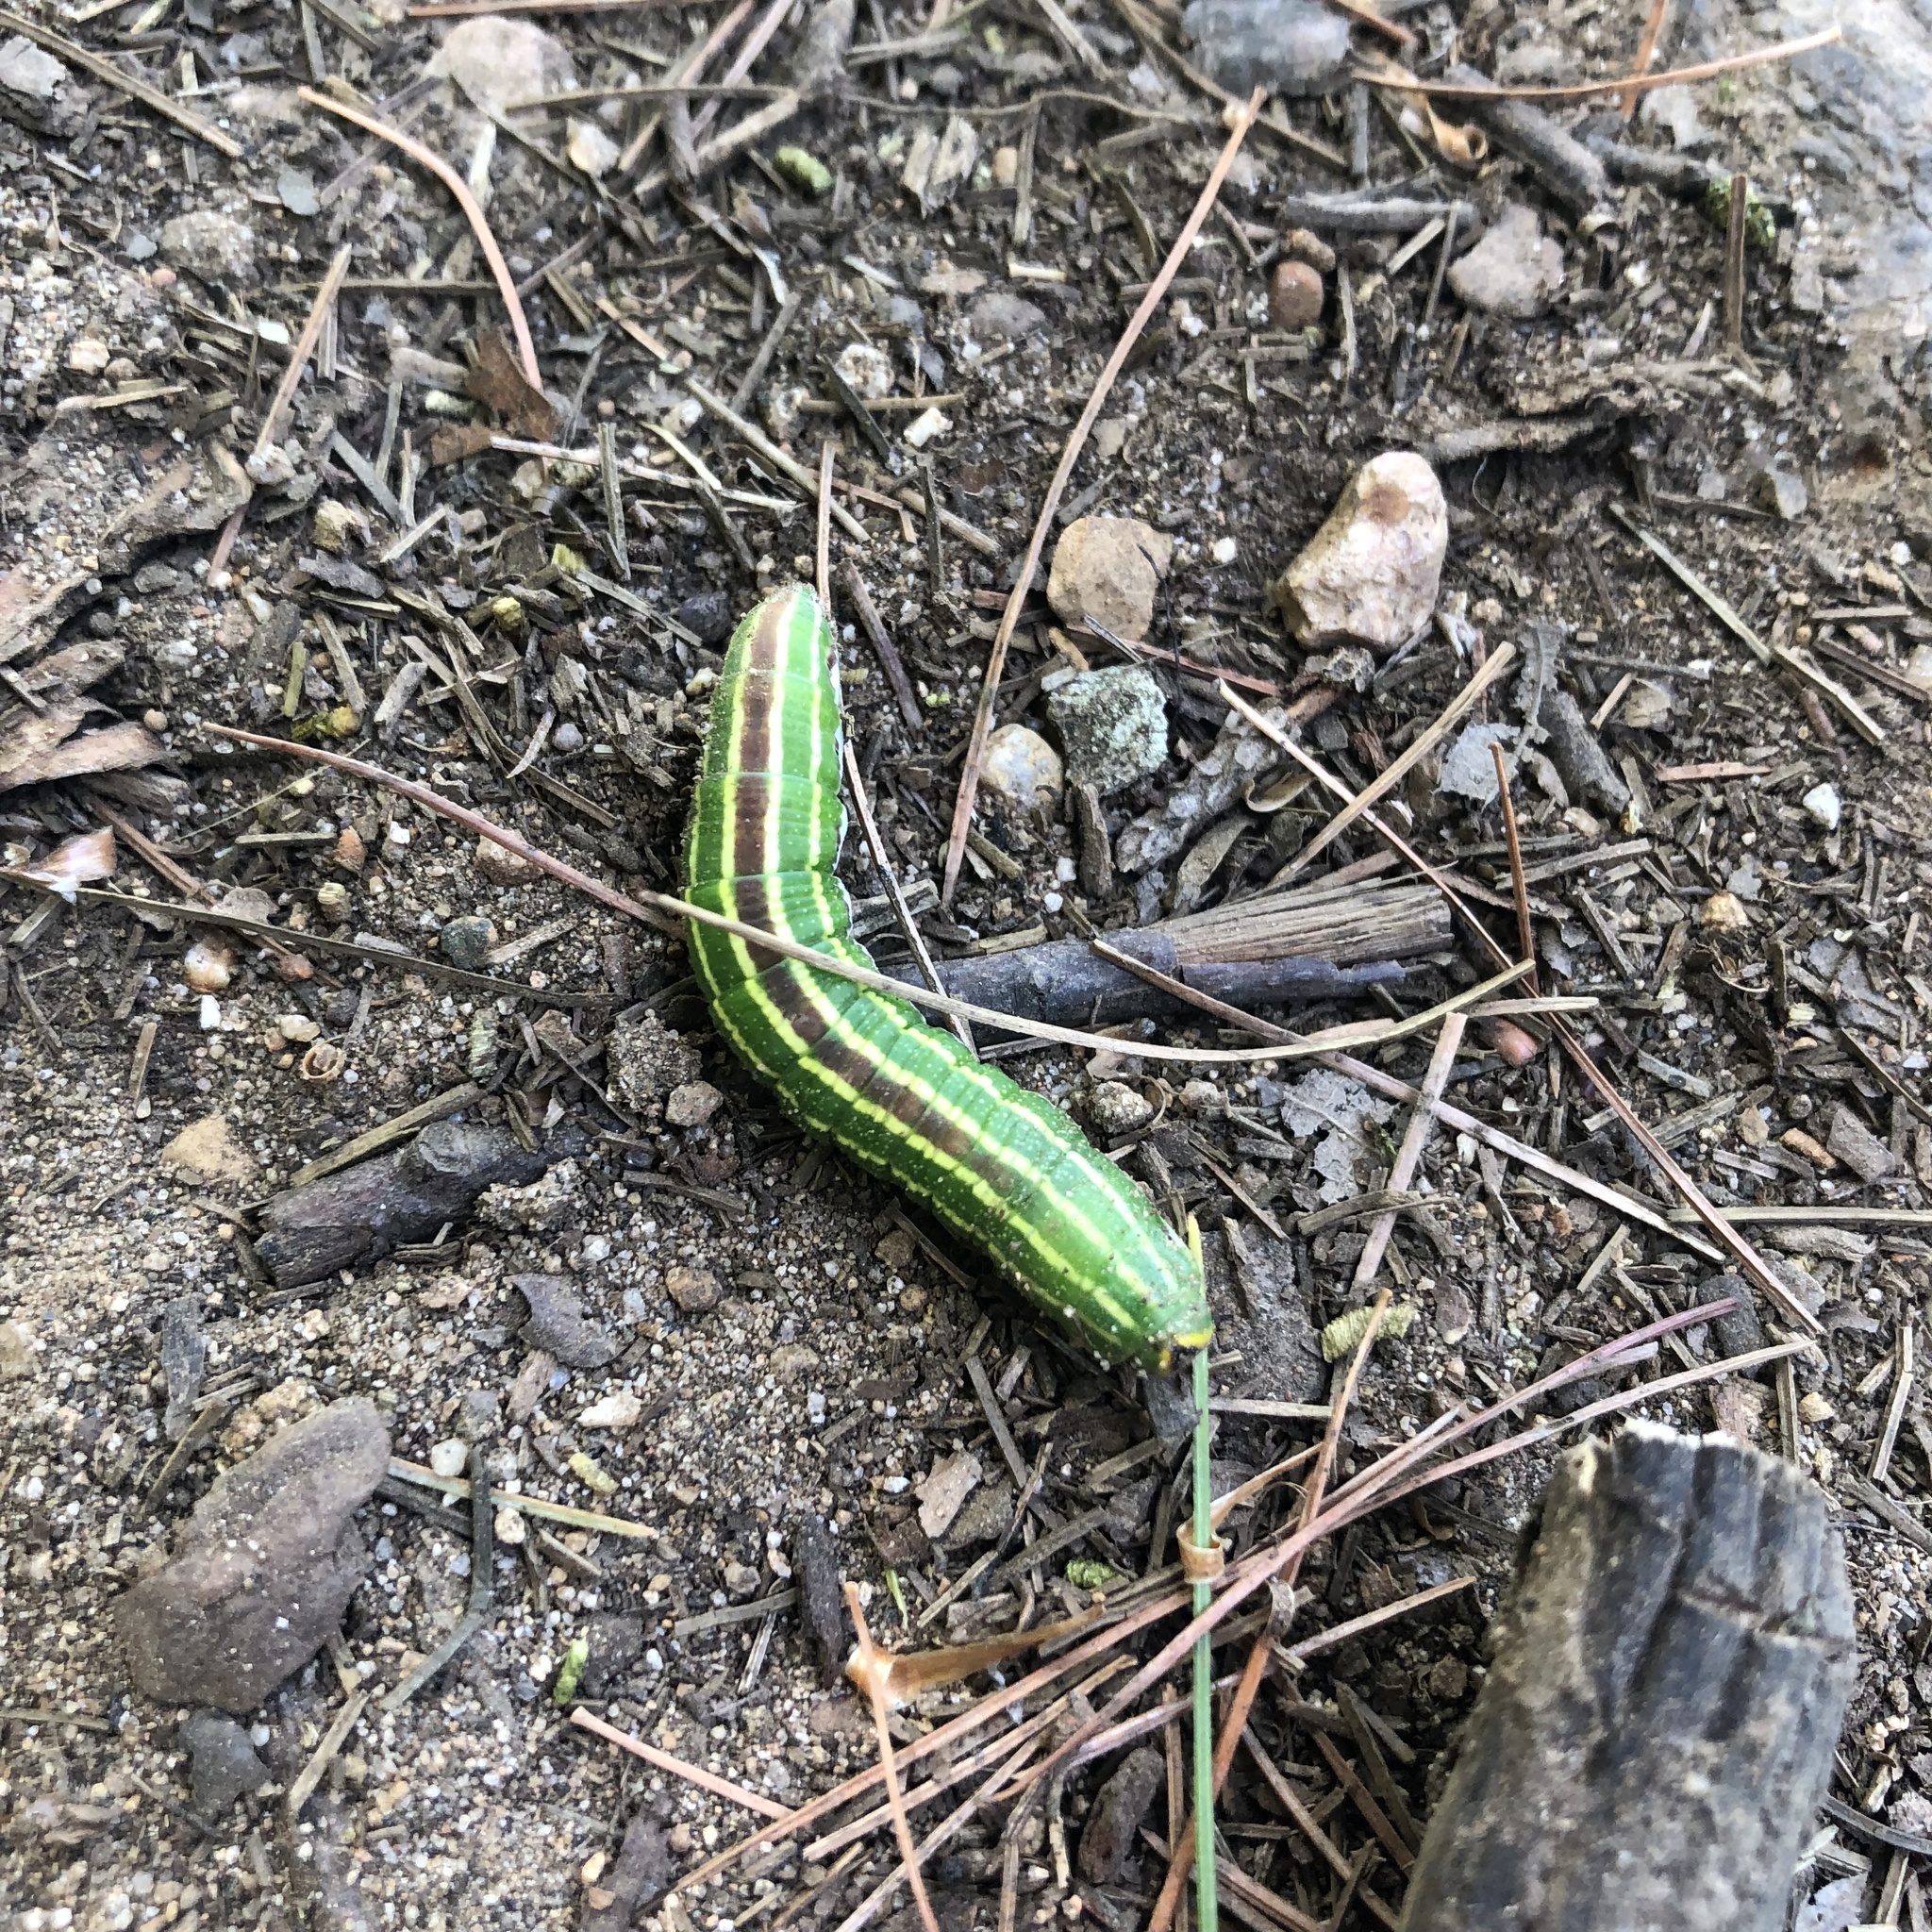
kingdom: Animalia
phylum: Arthropoda
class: Insecta
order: Lepidoptera
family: Sphingidae
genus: Lapara
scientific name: Lapara bombycoides
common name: Northern pine sphinx
